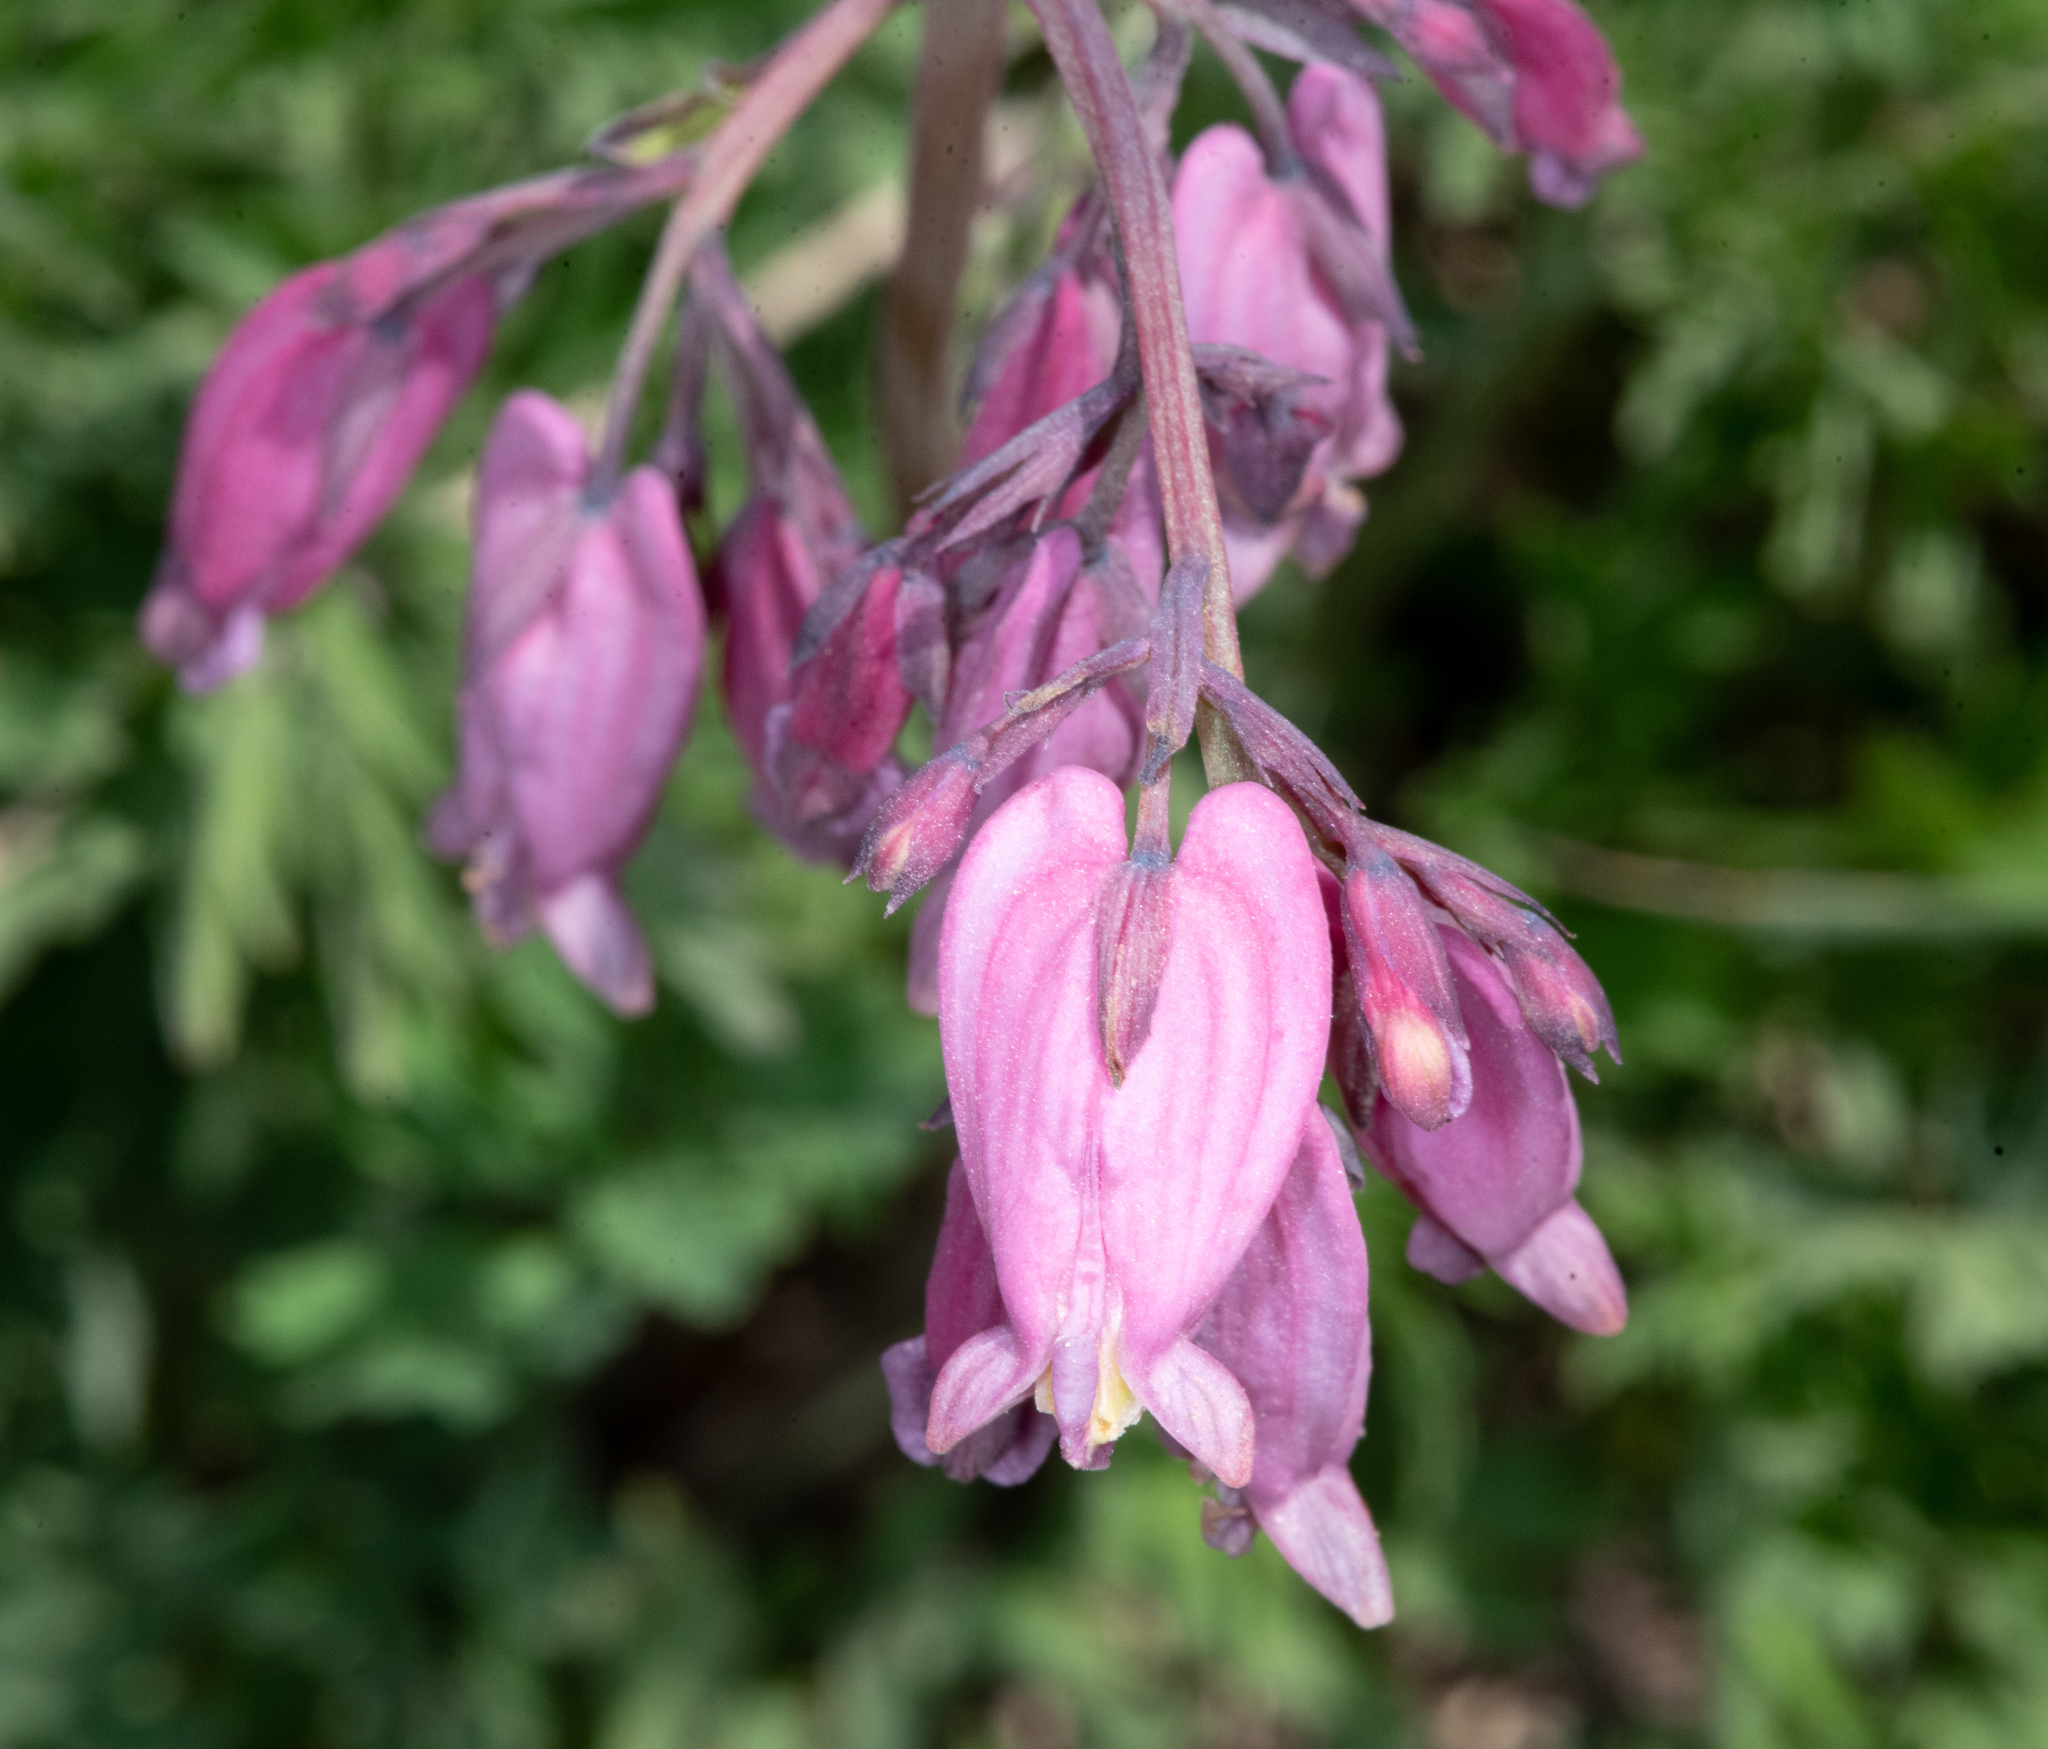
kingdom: Plantae
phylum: Tracheophyta
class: Magnoliopsida
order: Ranunculales
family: Papaveraceae
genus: Dicentra
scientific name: Dicentra formosa
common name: Bleeding-heart
